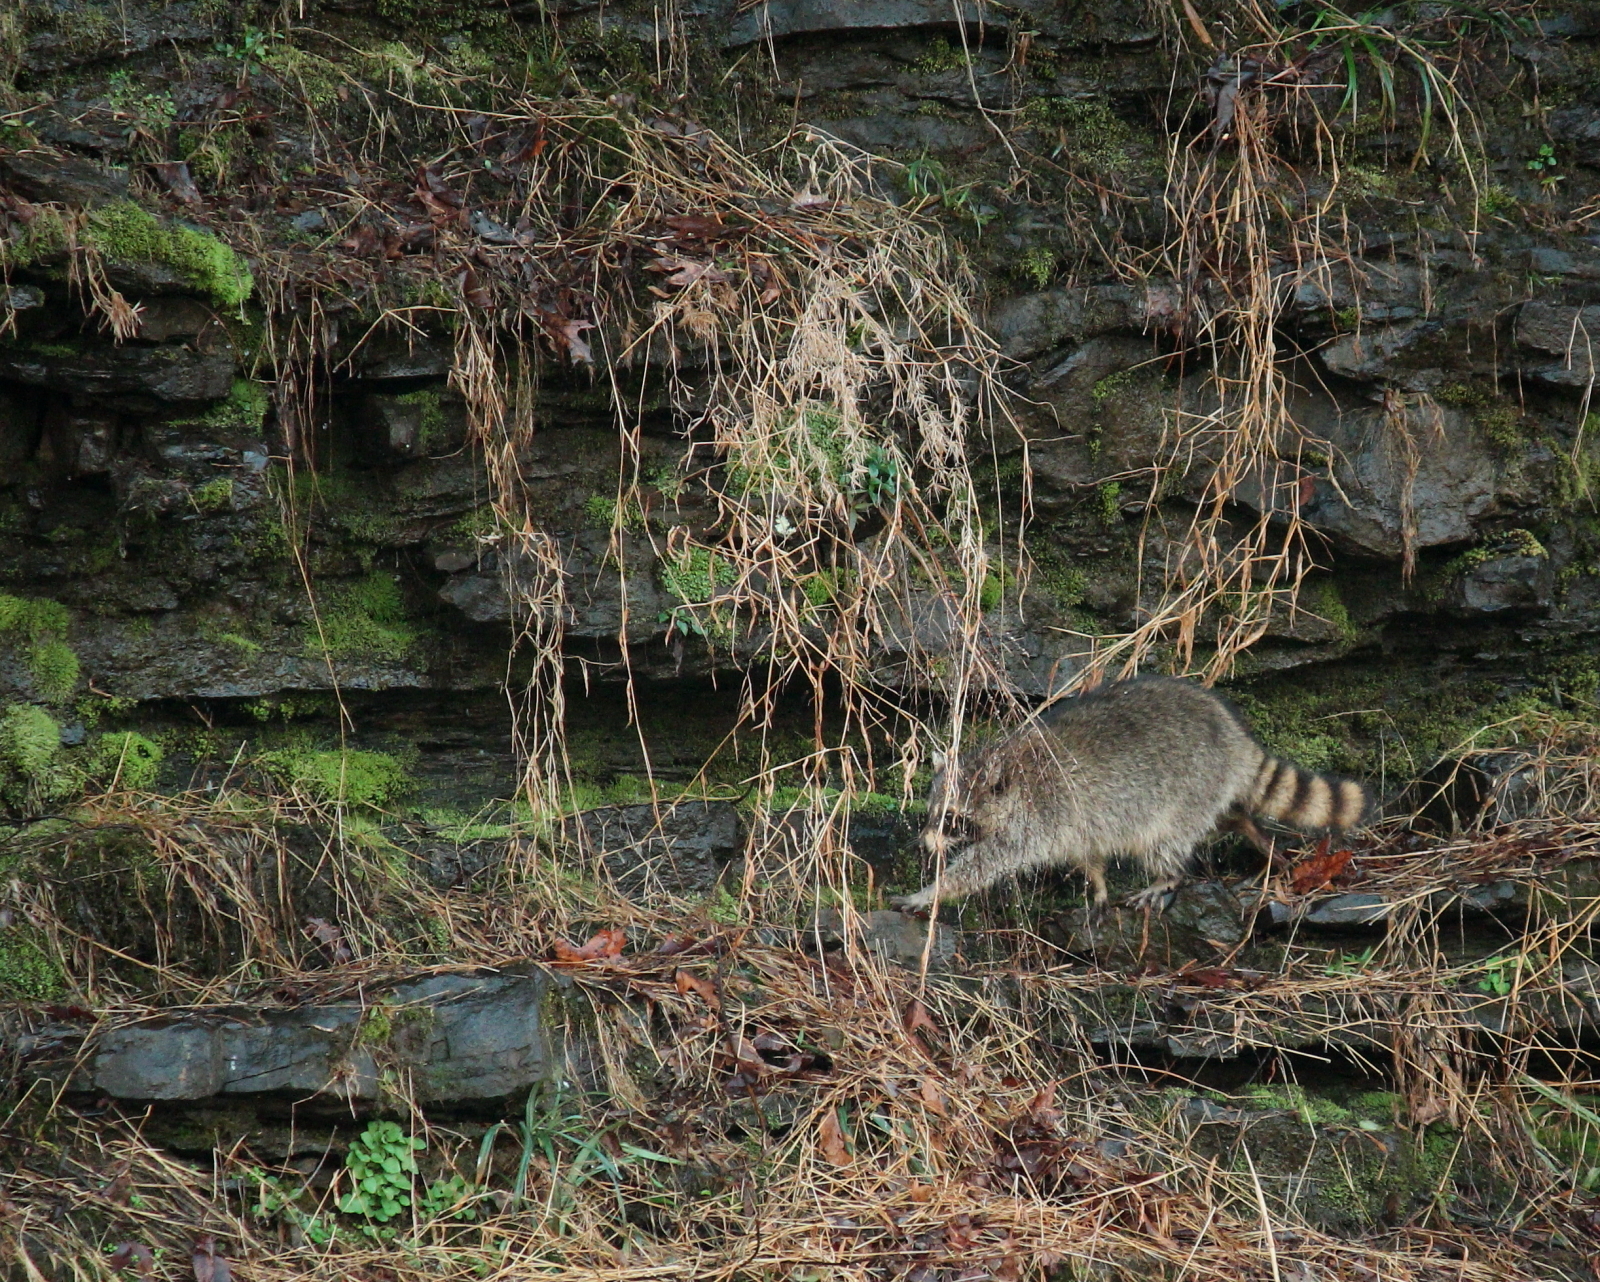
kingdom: Animalia
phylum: Chordata
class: Mammalia
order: Carnivora
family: Procyonidae
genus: Procyon
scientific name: Procyon lotor
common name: Raccoon
